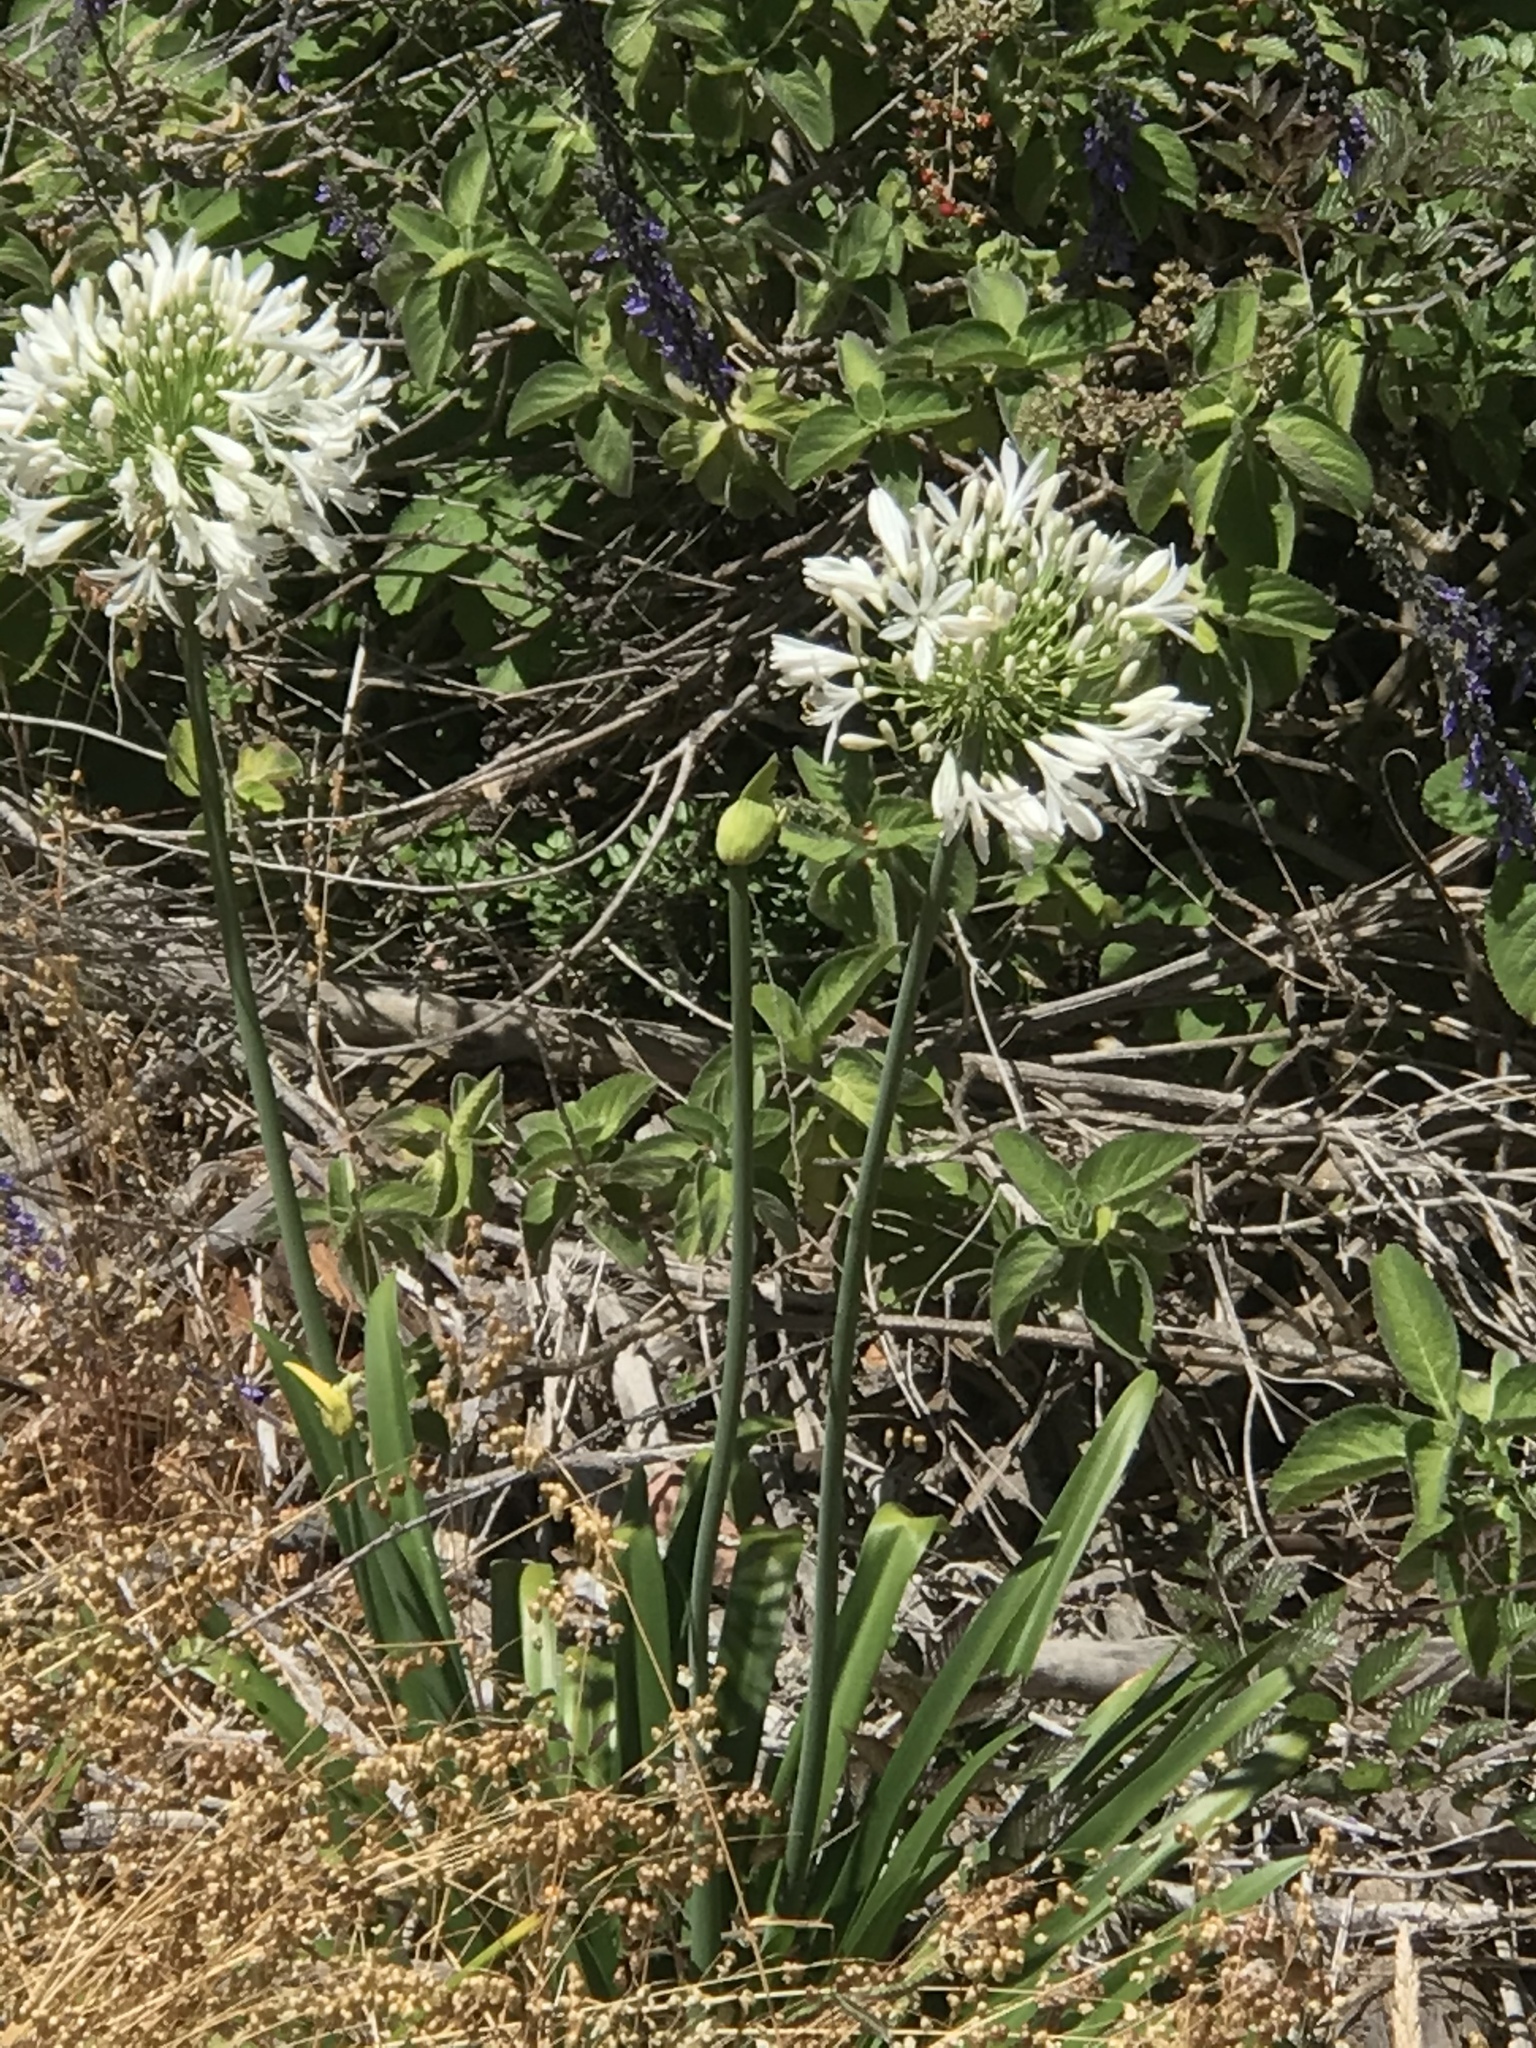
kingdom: Plantae
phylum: Tracheophyta
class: Liliopsida
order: Asparagales
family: Amaryllidaceae
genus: Agapanthus
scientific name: Agapanthus praecox
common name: African-lily
